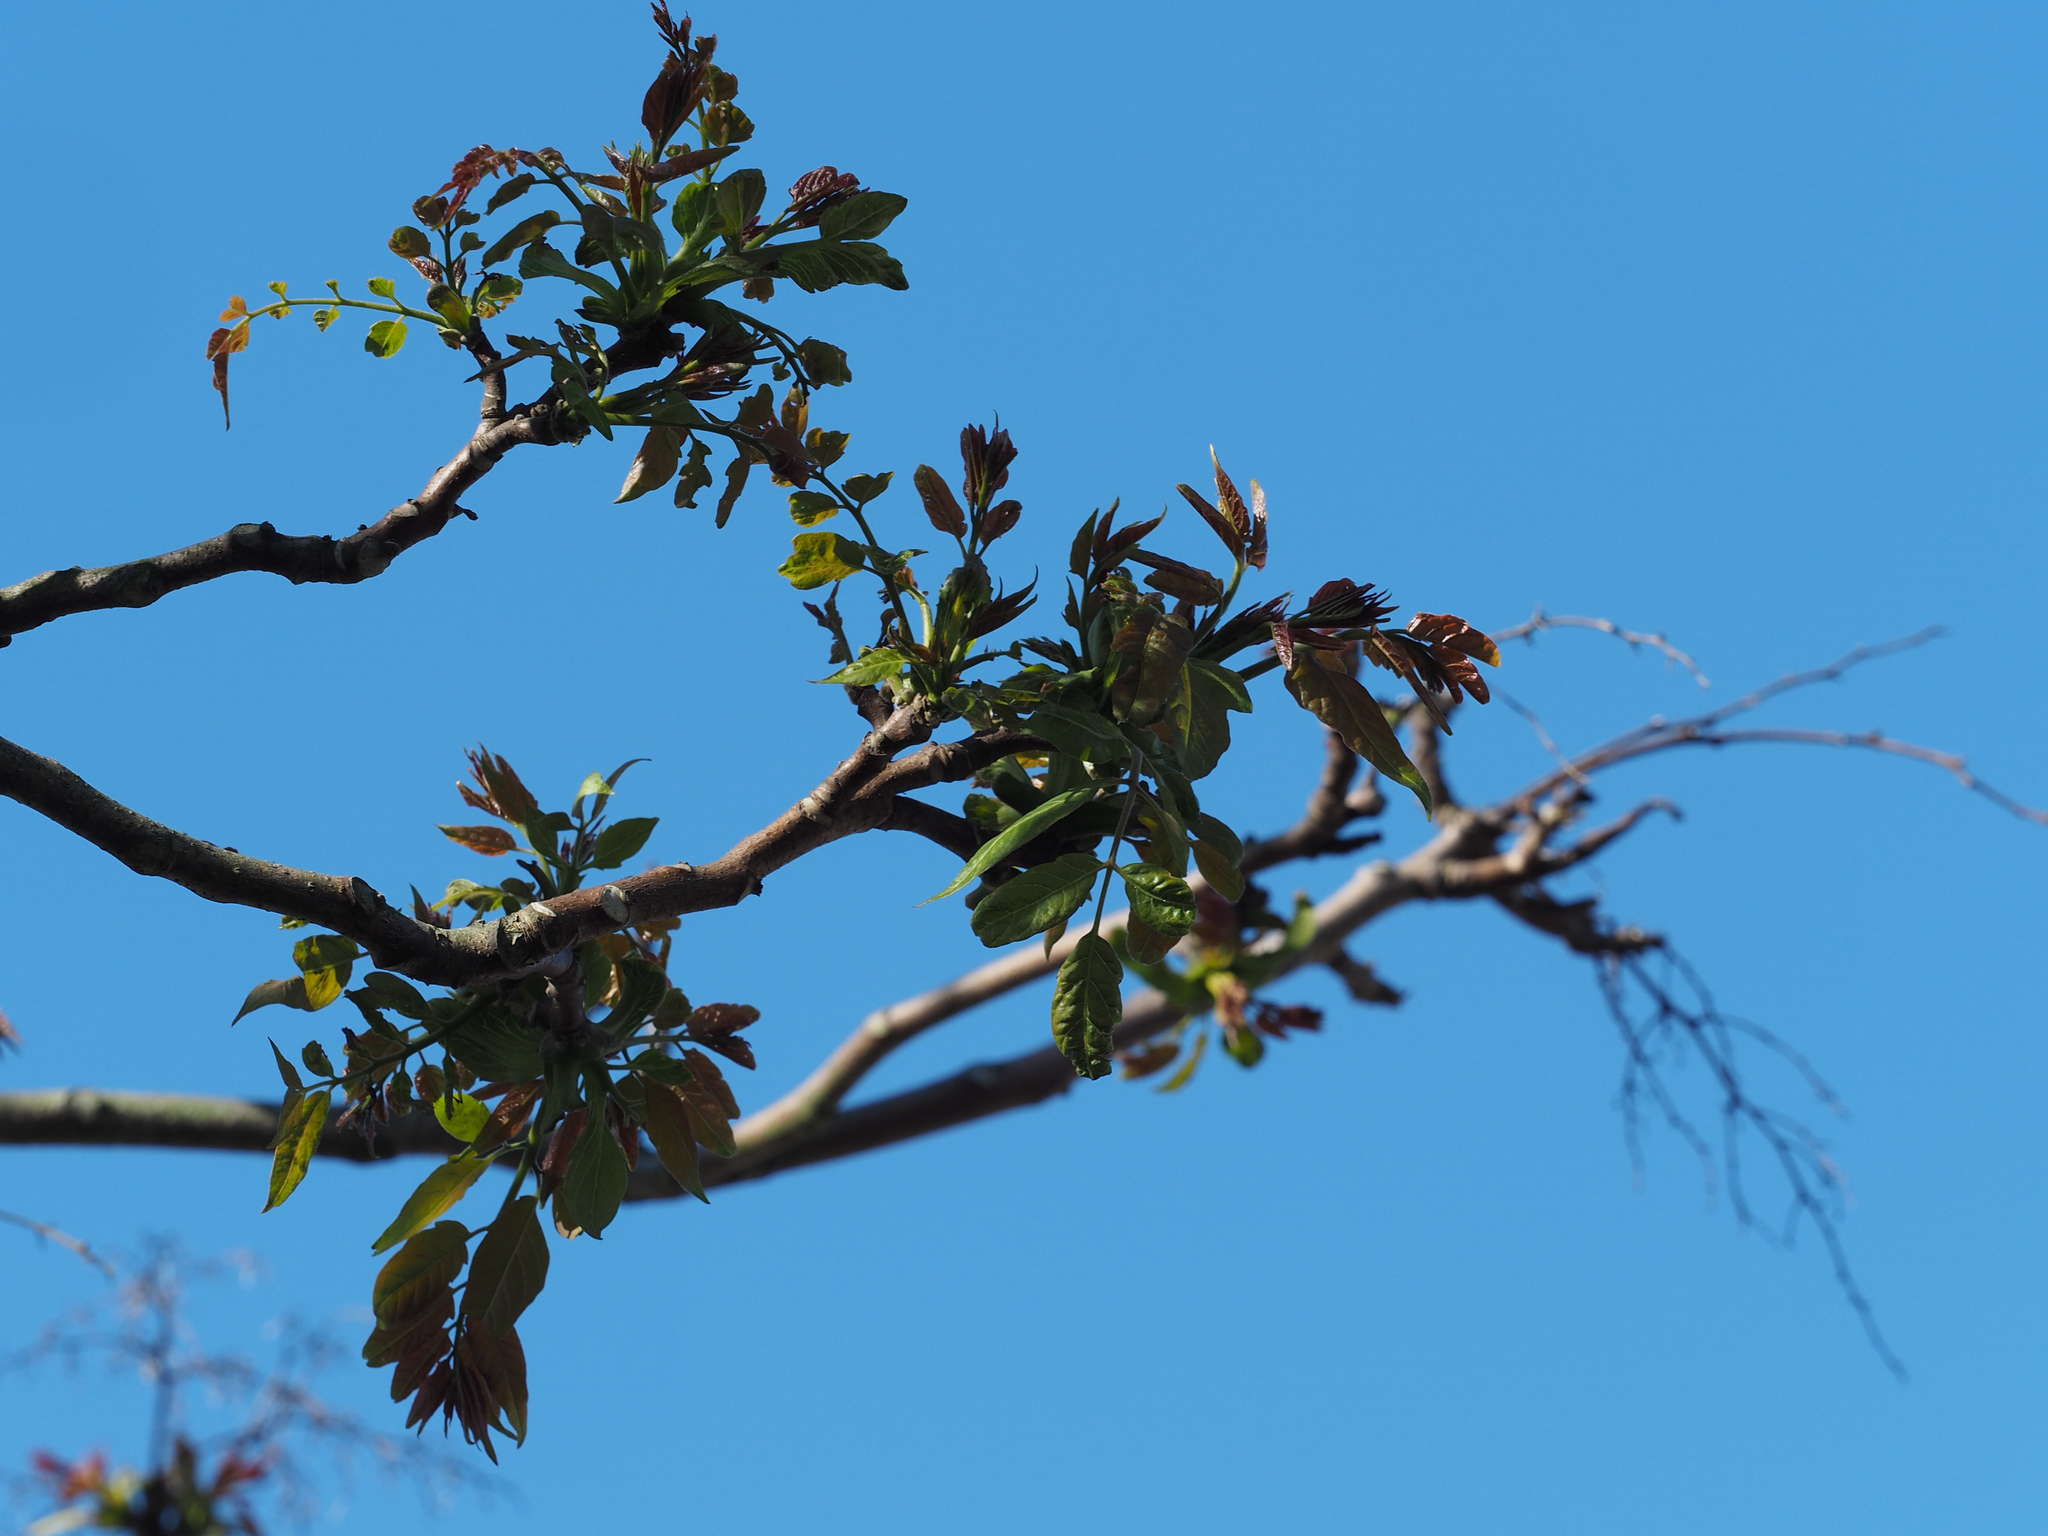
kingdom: Plantae
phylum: Tracheophyta
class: Magnoliopsida
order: Sapindales
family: Simaroubaceae
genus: Ailanthus
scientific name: Ailanthus altissima
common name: Tree-of-heaven
